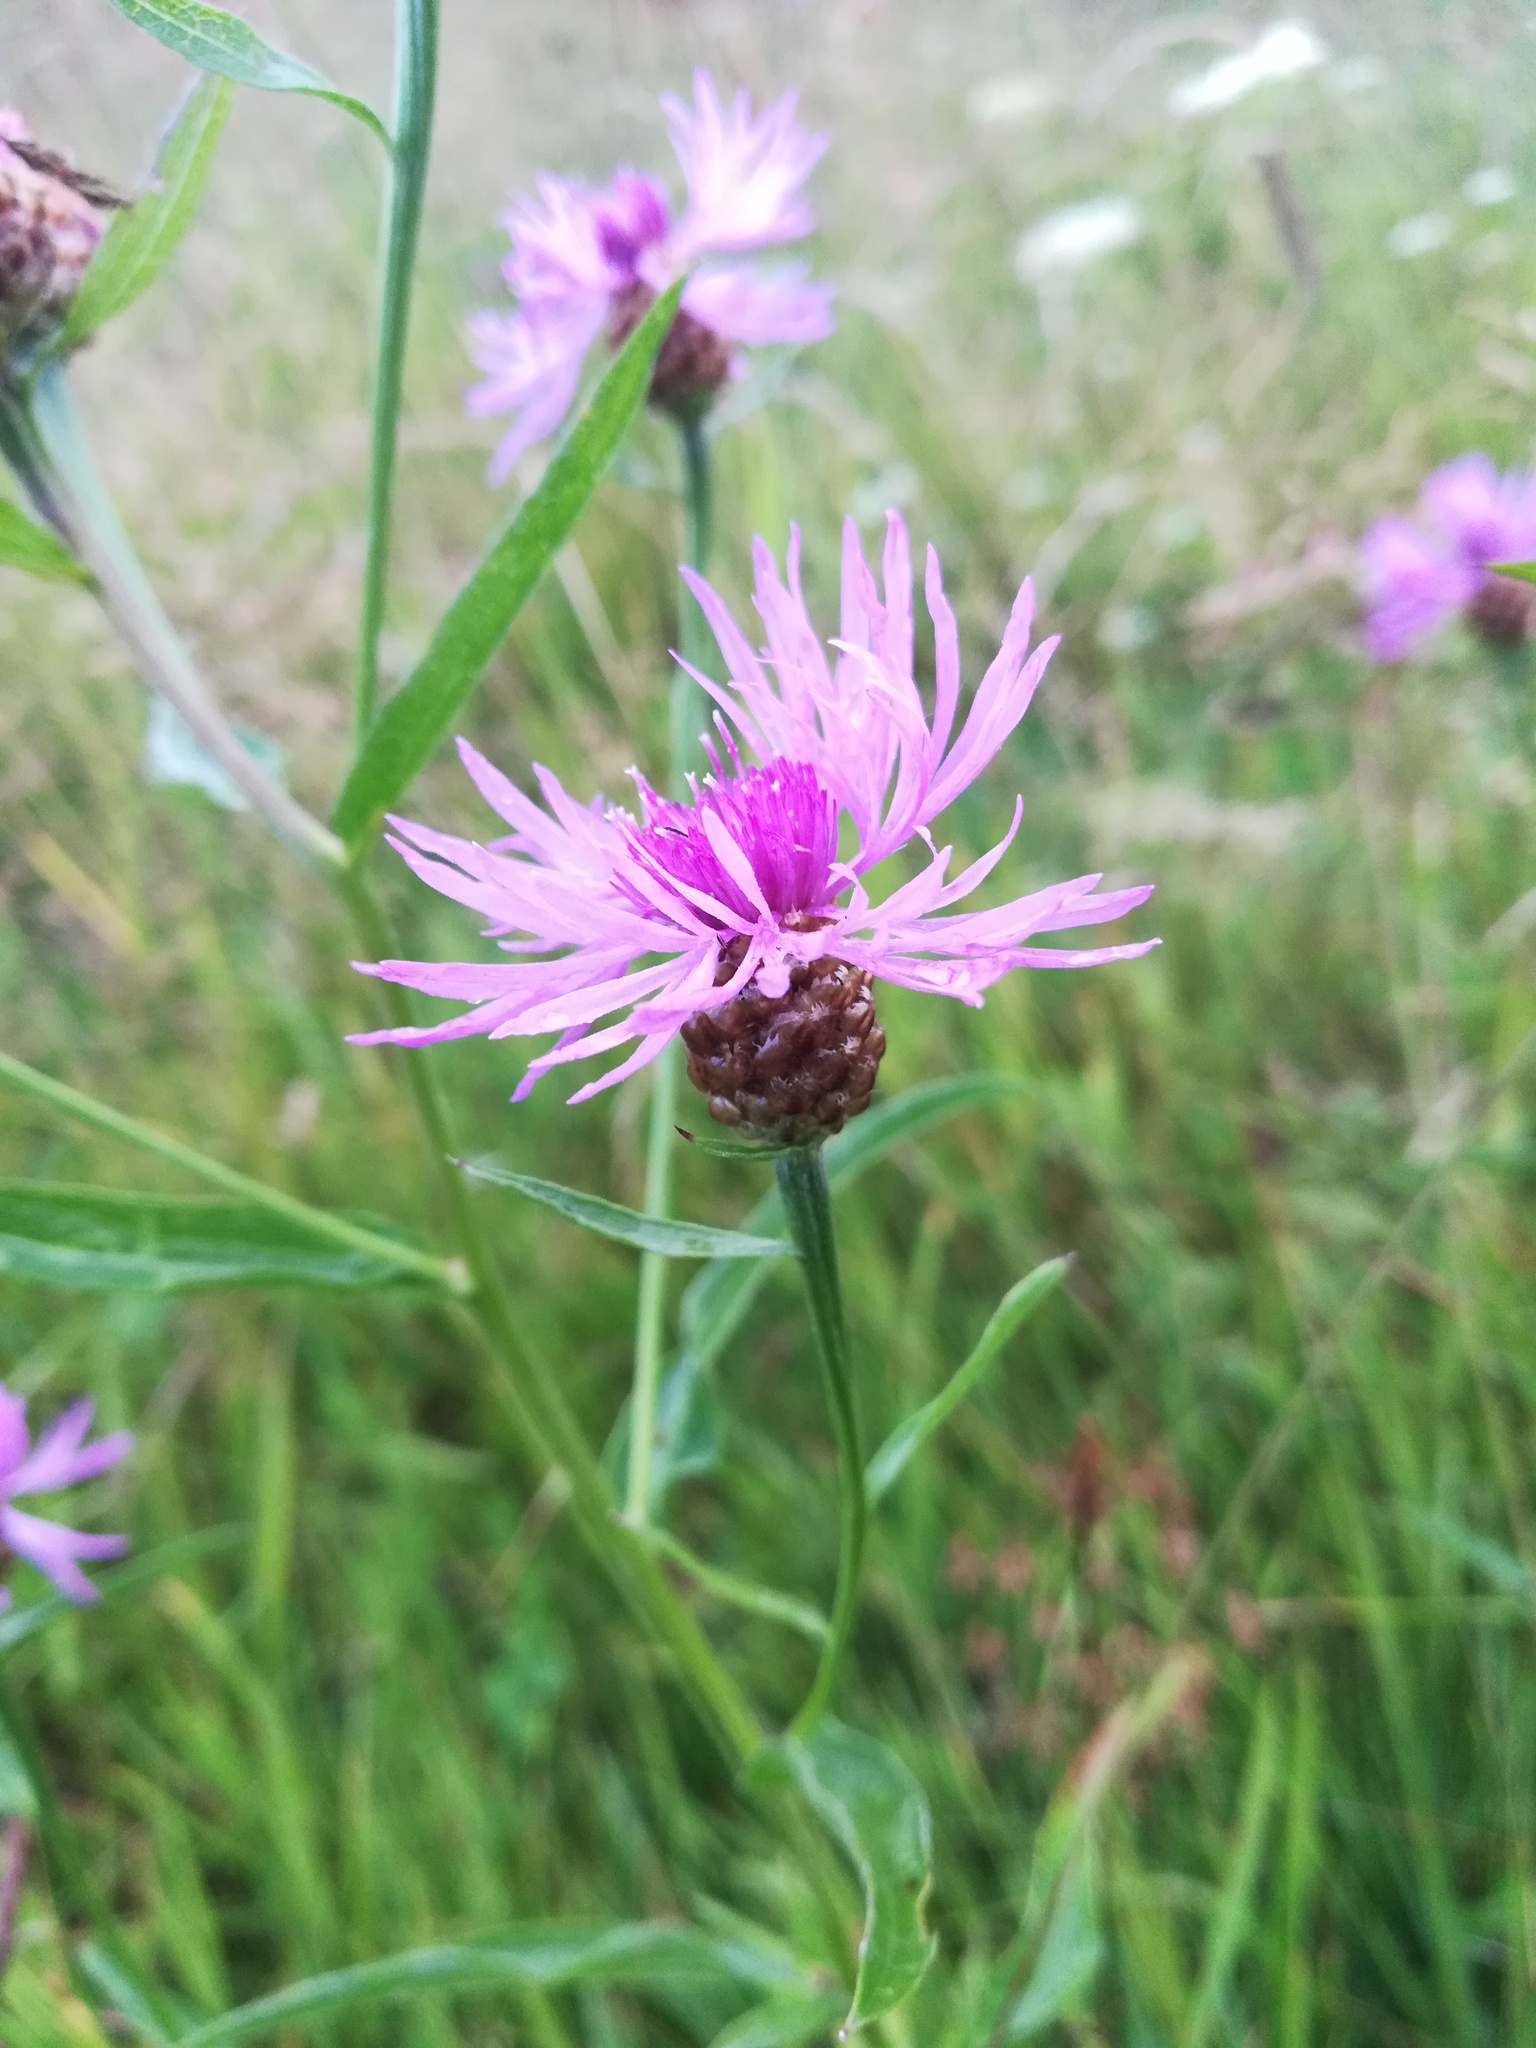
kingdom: Plantae
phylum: Tracheophyta
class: Magnoliopsida
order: Asterales
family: Asteraceae
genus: Centaurea
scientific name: Centaurea jacea
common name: Brown knapweed
